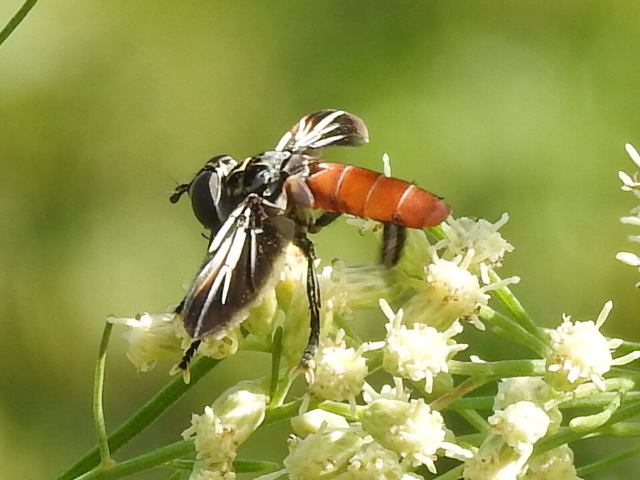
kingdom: Animalia
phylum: Arthropoda
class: Insecta
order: Diptera
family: Tachinidae
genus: Trichopoda
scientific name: Trichopoda pennipes
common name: Tachinid fly
